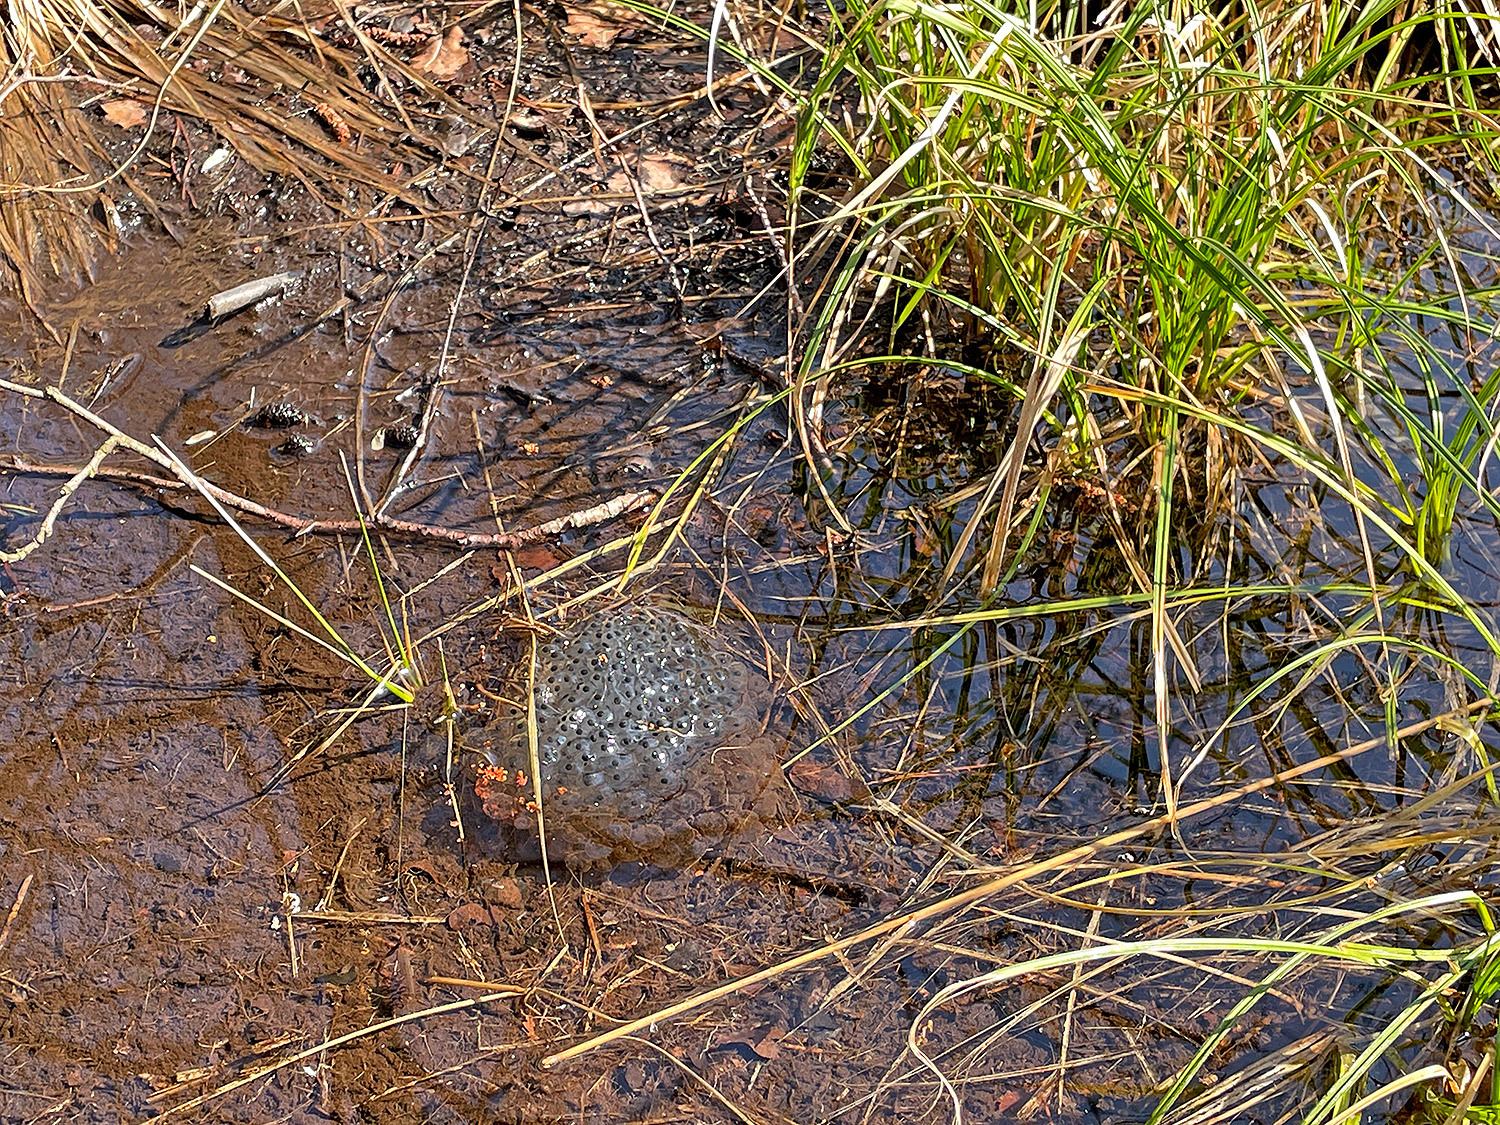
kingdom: Animalia
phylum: Chordata
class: Amphibia
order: Anura
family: Ranidae
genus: Rana
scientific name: Rana temporaria
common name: Common frog
